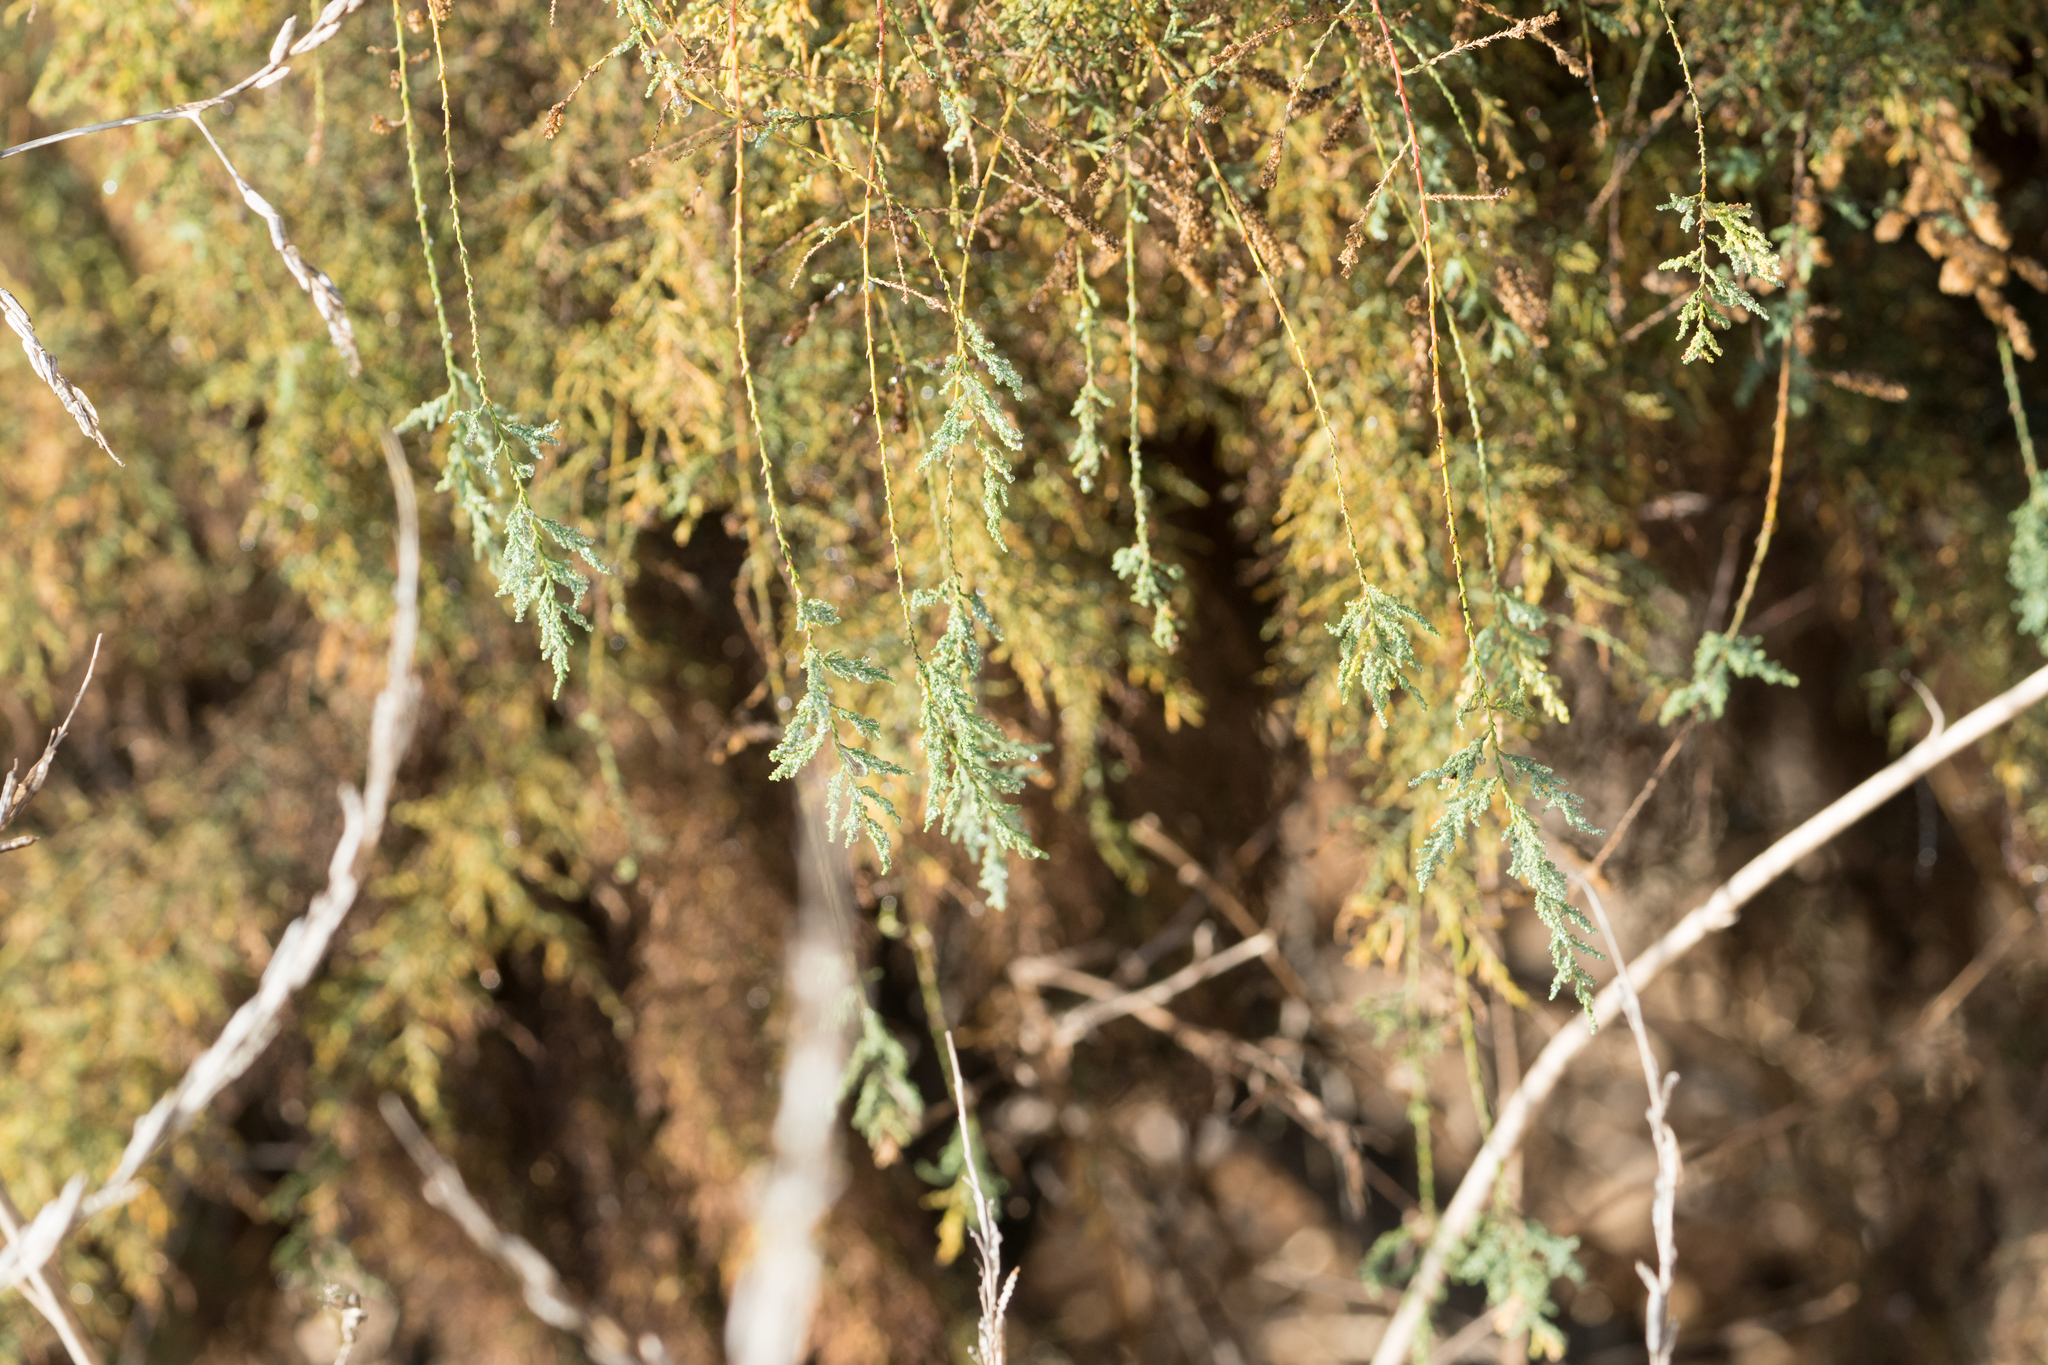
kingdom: Plantae
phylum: Tracheophyta
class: Magnoliopsida
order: Caryophyllales
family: Tamaricaceae
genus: Tamarix
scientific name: Tamarix ramosissima
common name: Pink tamarisk
